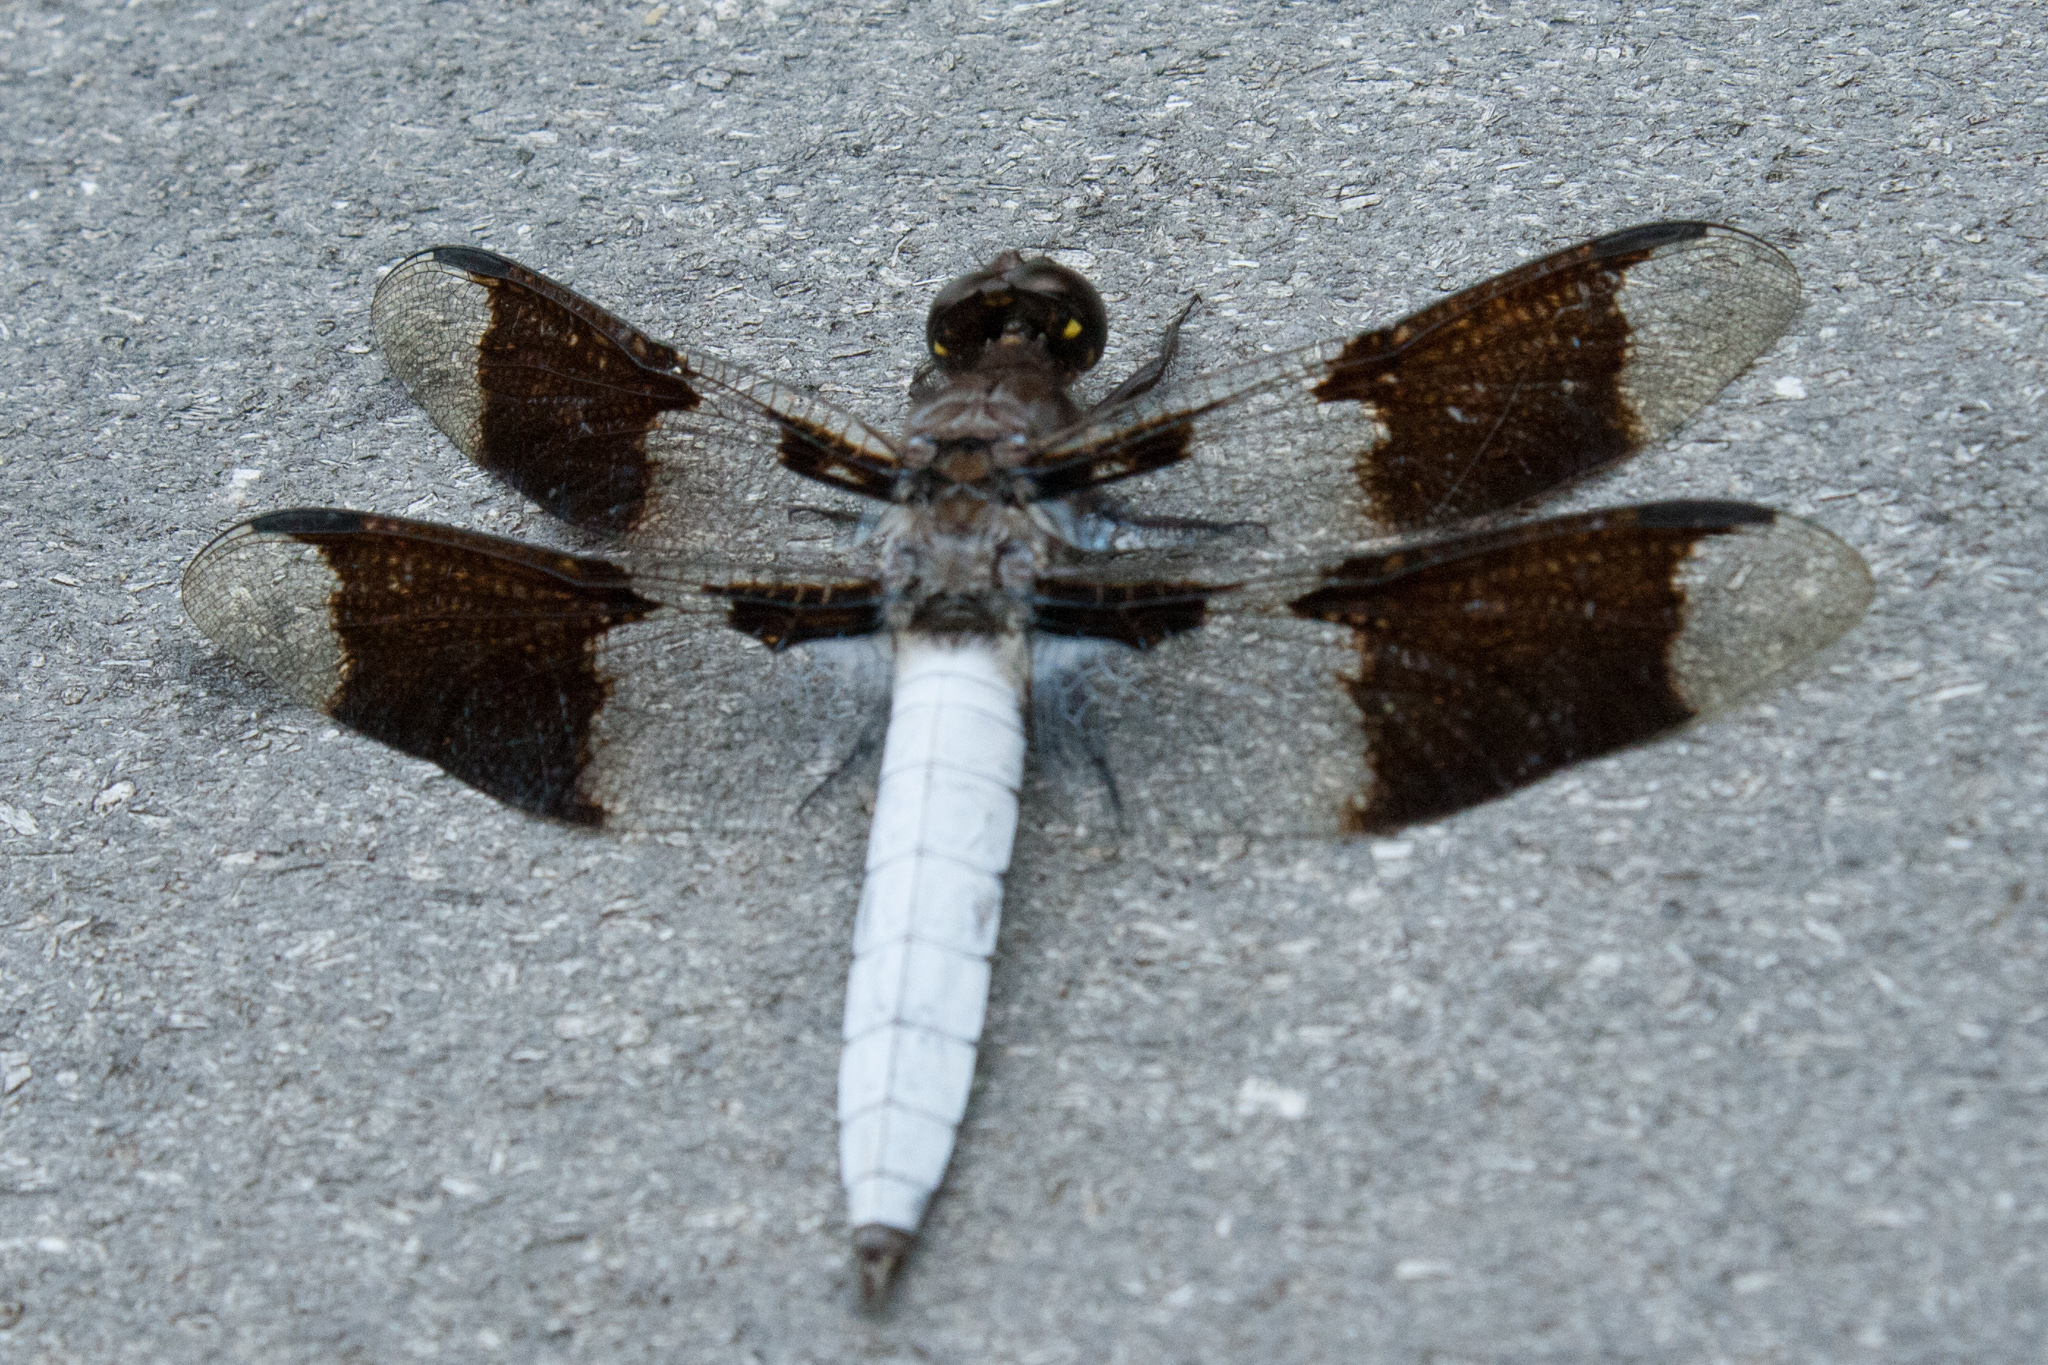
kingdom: Animalia
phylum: Arthropoda
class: Insecta
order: Odonata
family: Libellulidae
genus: Plathemis
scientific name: Plathemis lydia
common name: Common whitetail
